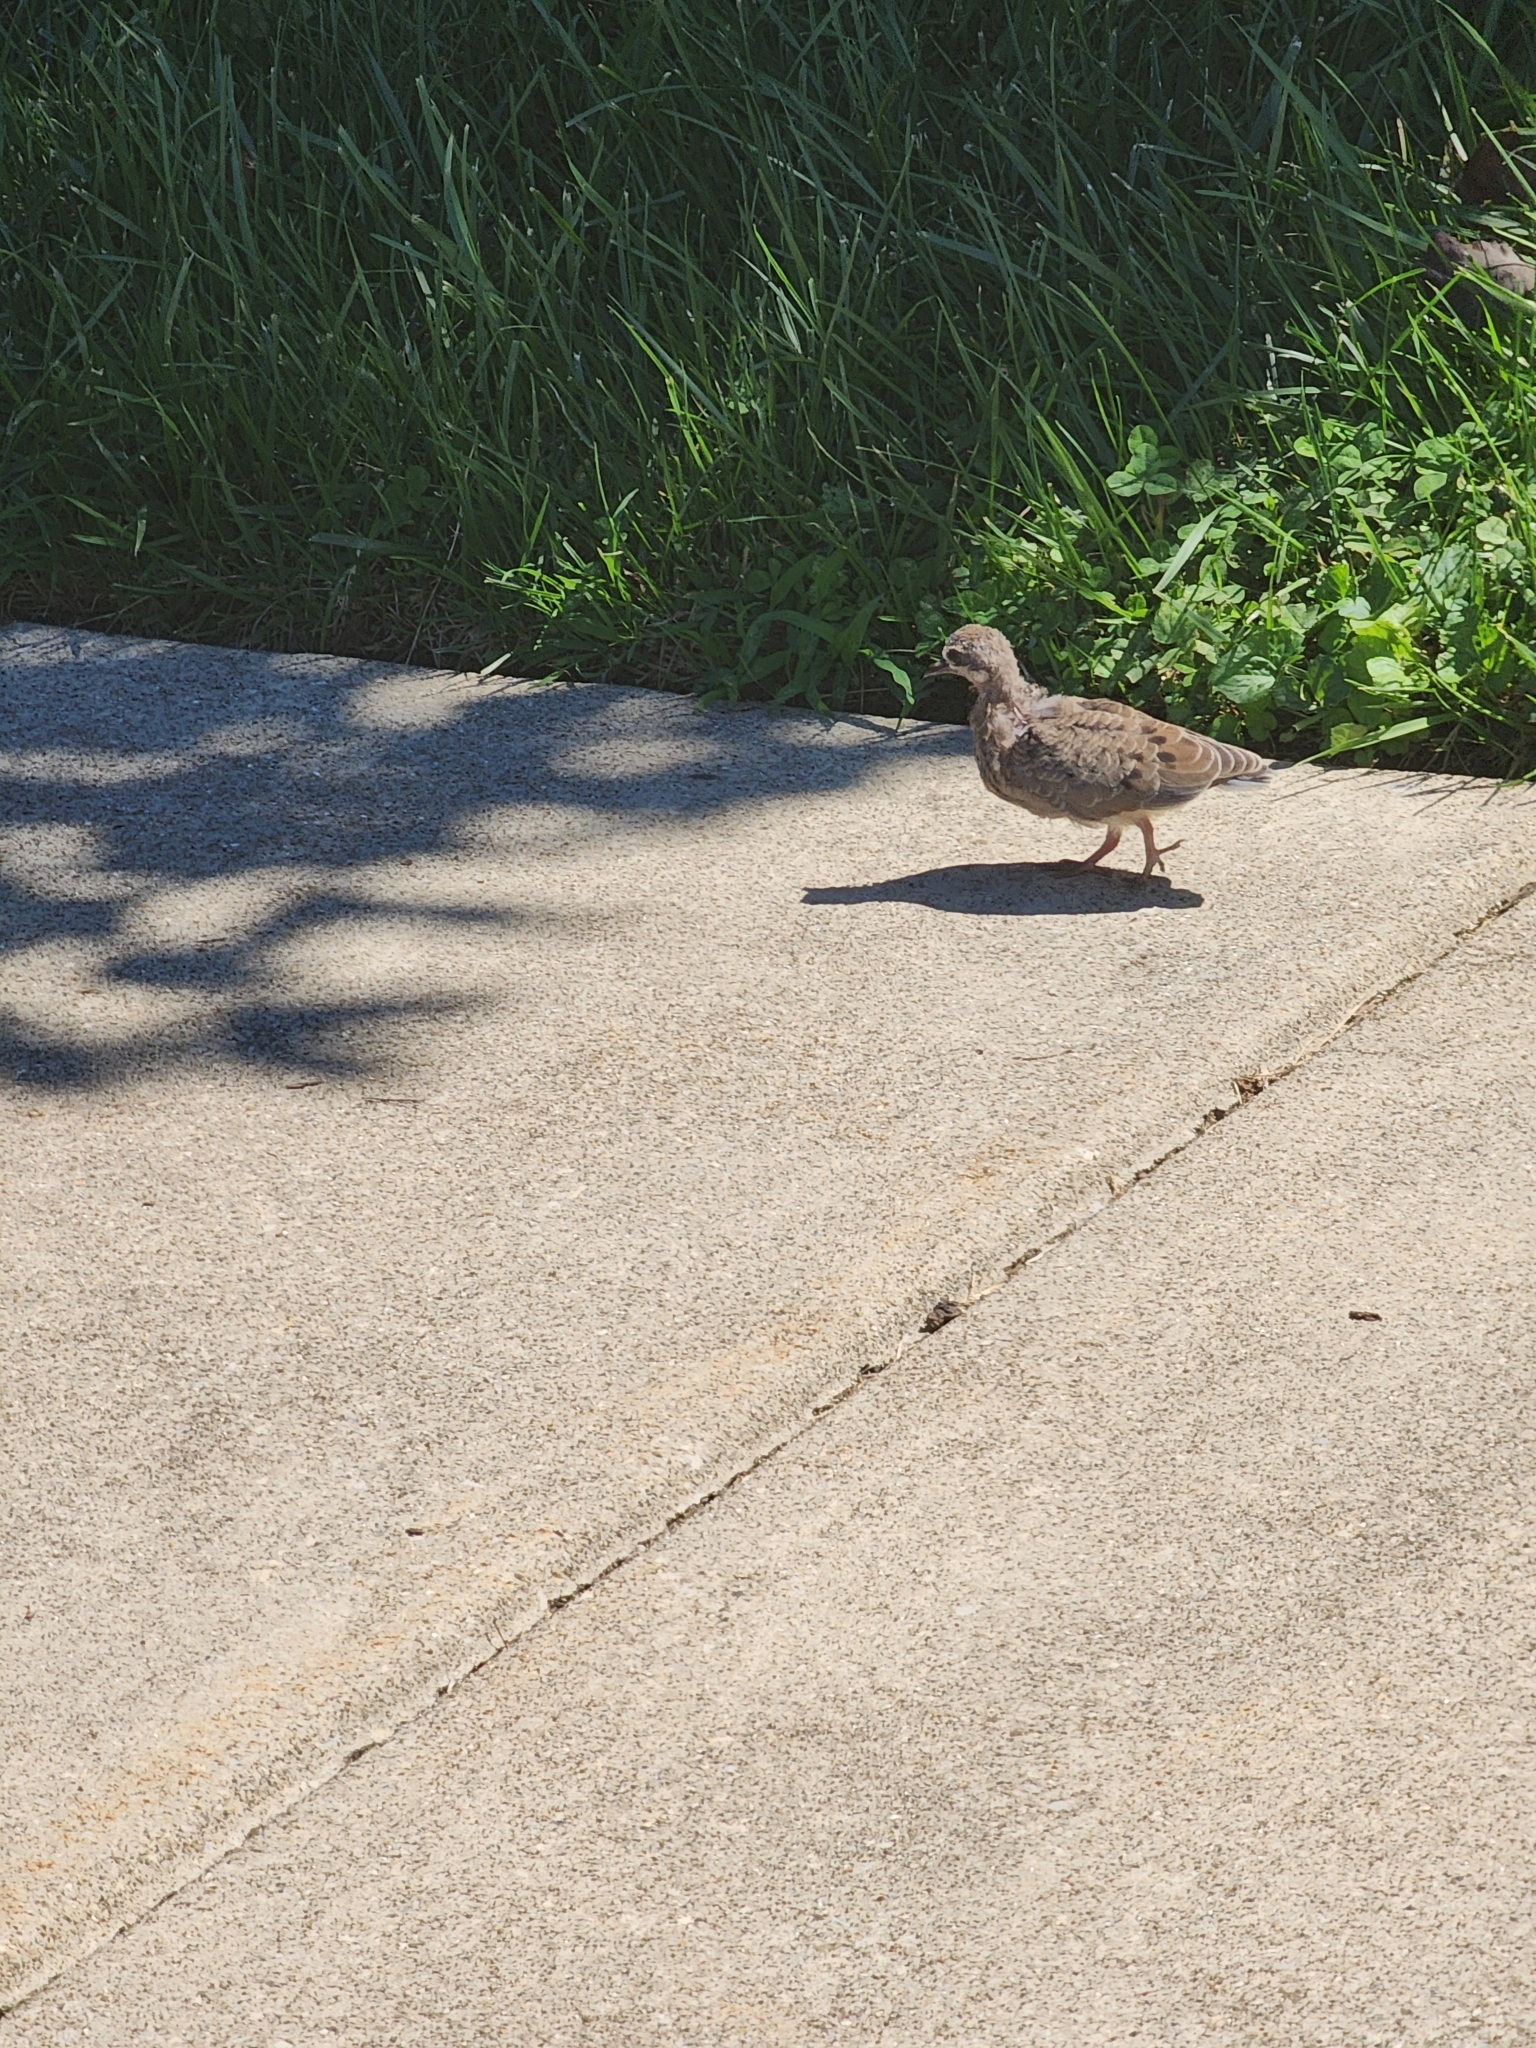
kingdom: Animalia
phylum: Chordata
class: Aves
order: Columbiformes
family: Columbidae
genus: Zenaida
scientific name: Zenaida macroura
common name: Mourning dove
